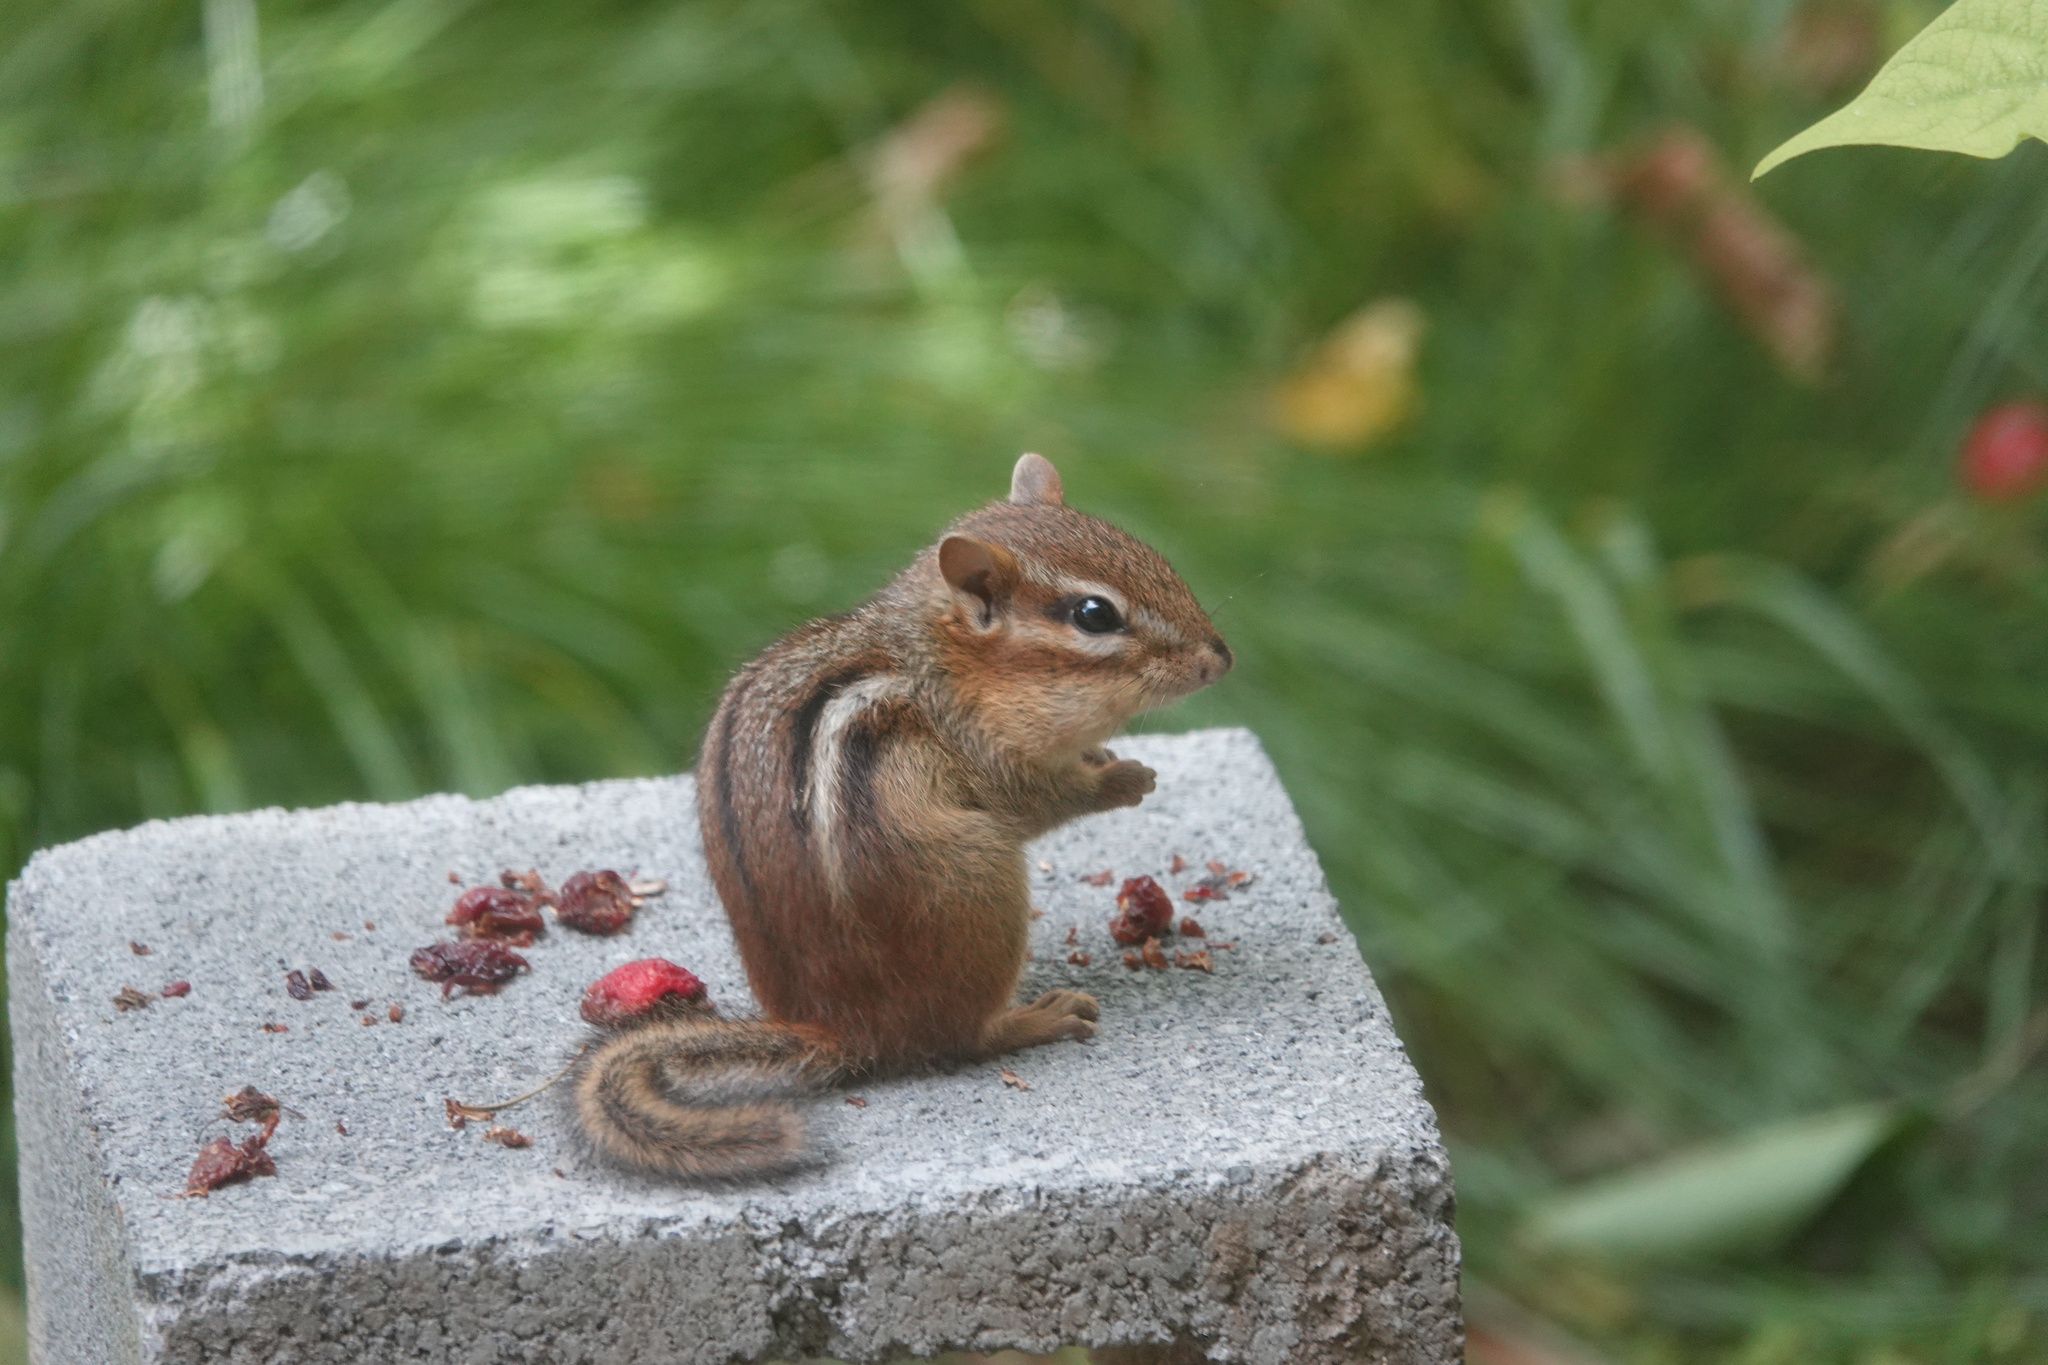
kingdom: Animalia
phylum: Chordata
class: Mammalia
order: Rodentia
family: Sciuridae
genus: Tamias
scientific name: Tamias striatus
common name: Eastern chipmunk
